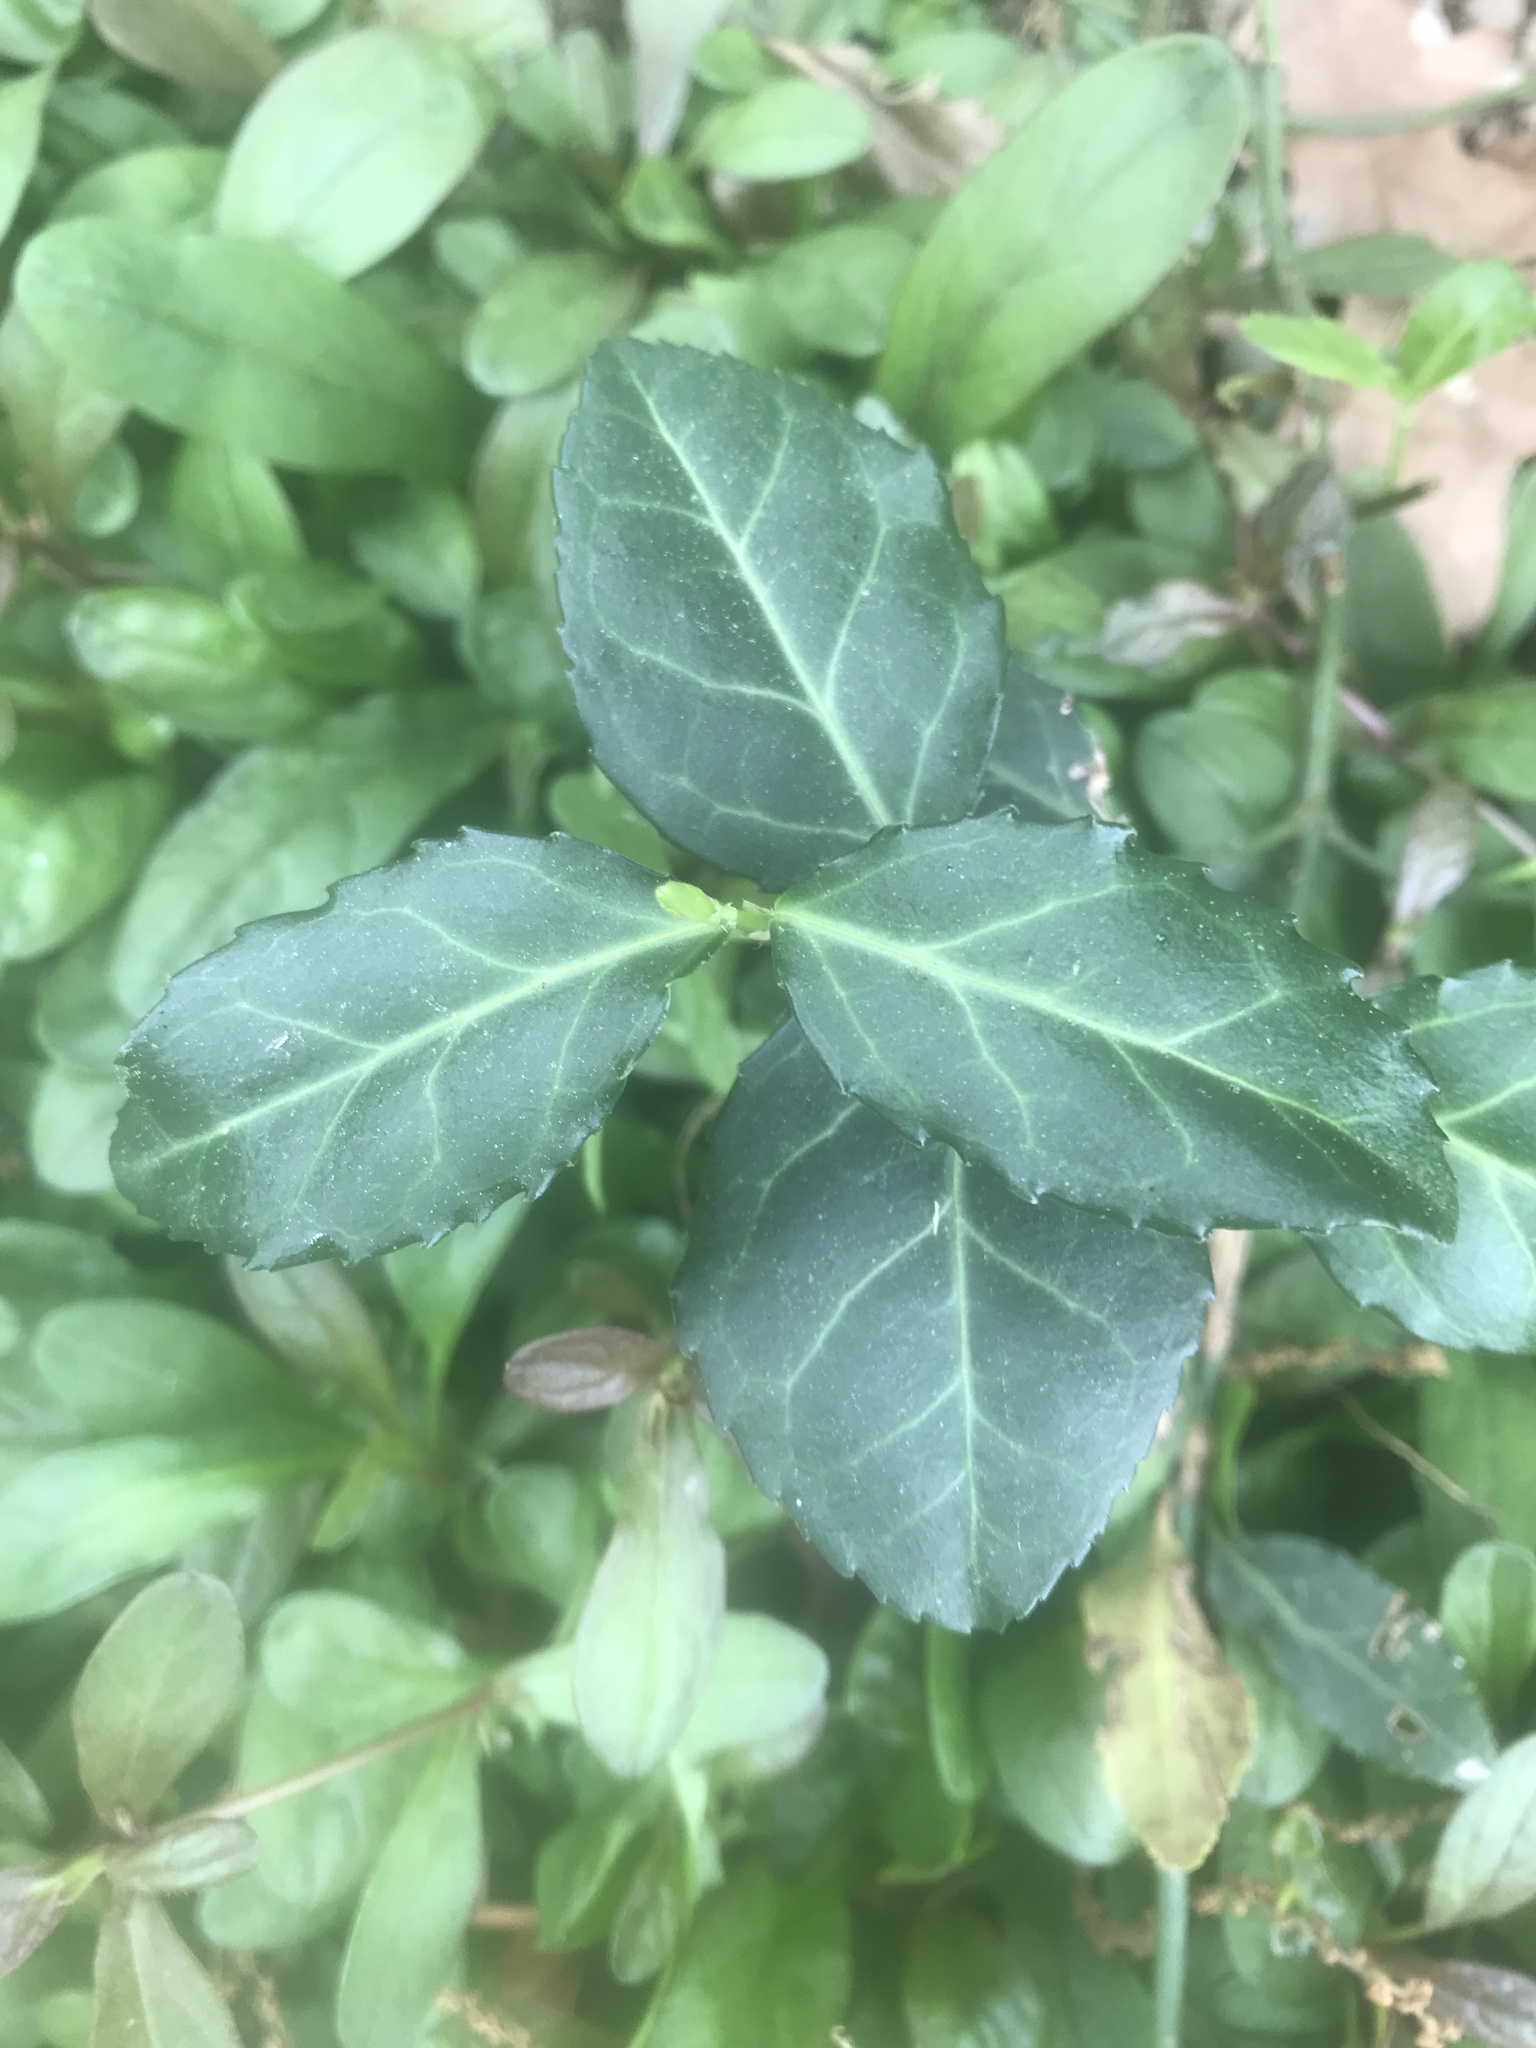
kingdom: Plantae
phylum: Tracheophyta
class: Magnoliopsida
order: Celastrales
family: Celastraceae
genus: Euonymus
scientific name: Euonymus fortunei
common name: Climbing euonymus
